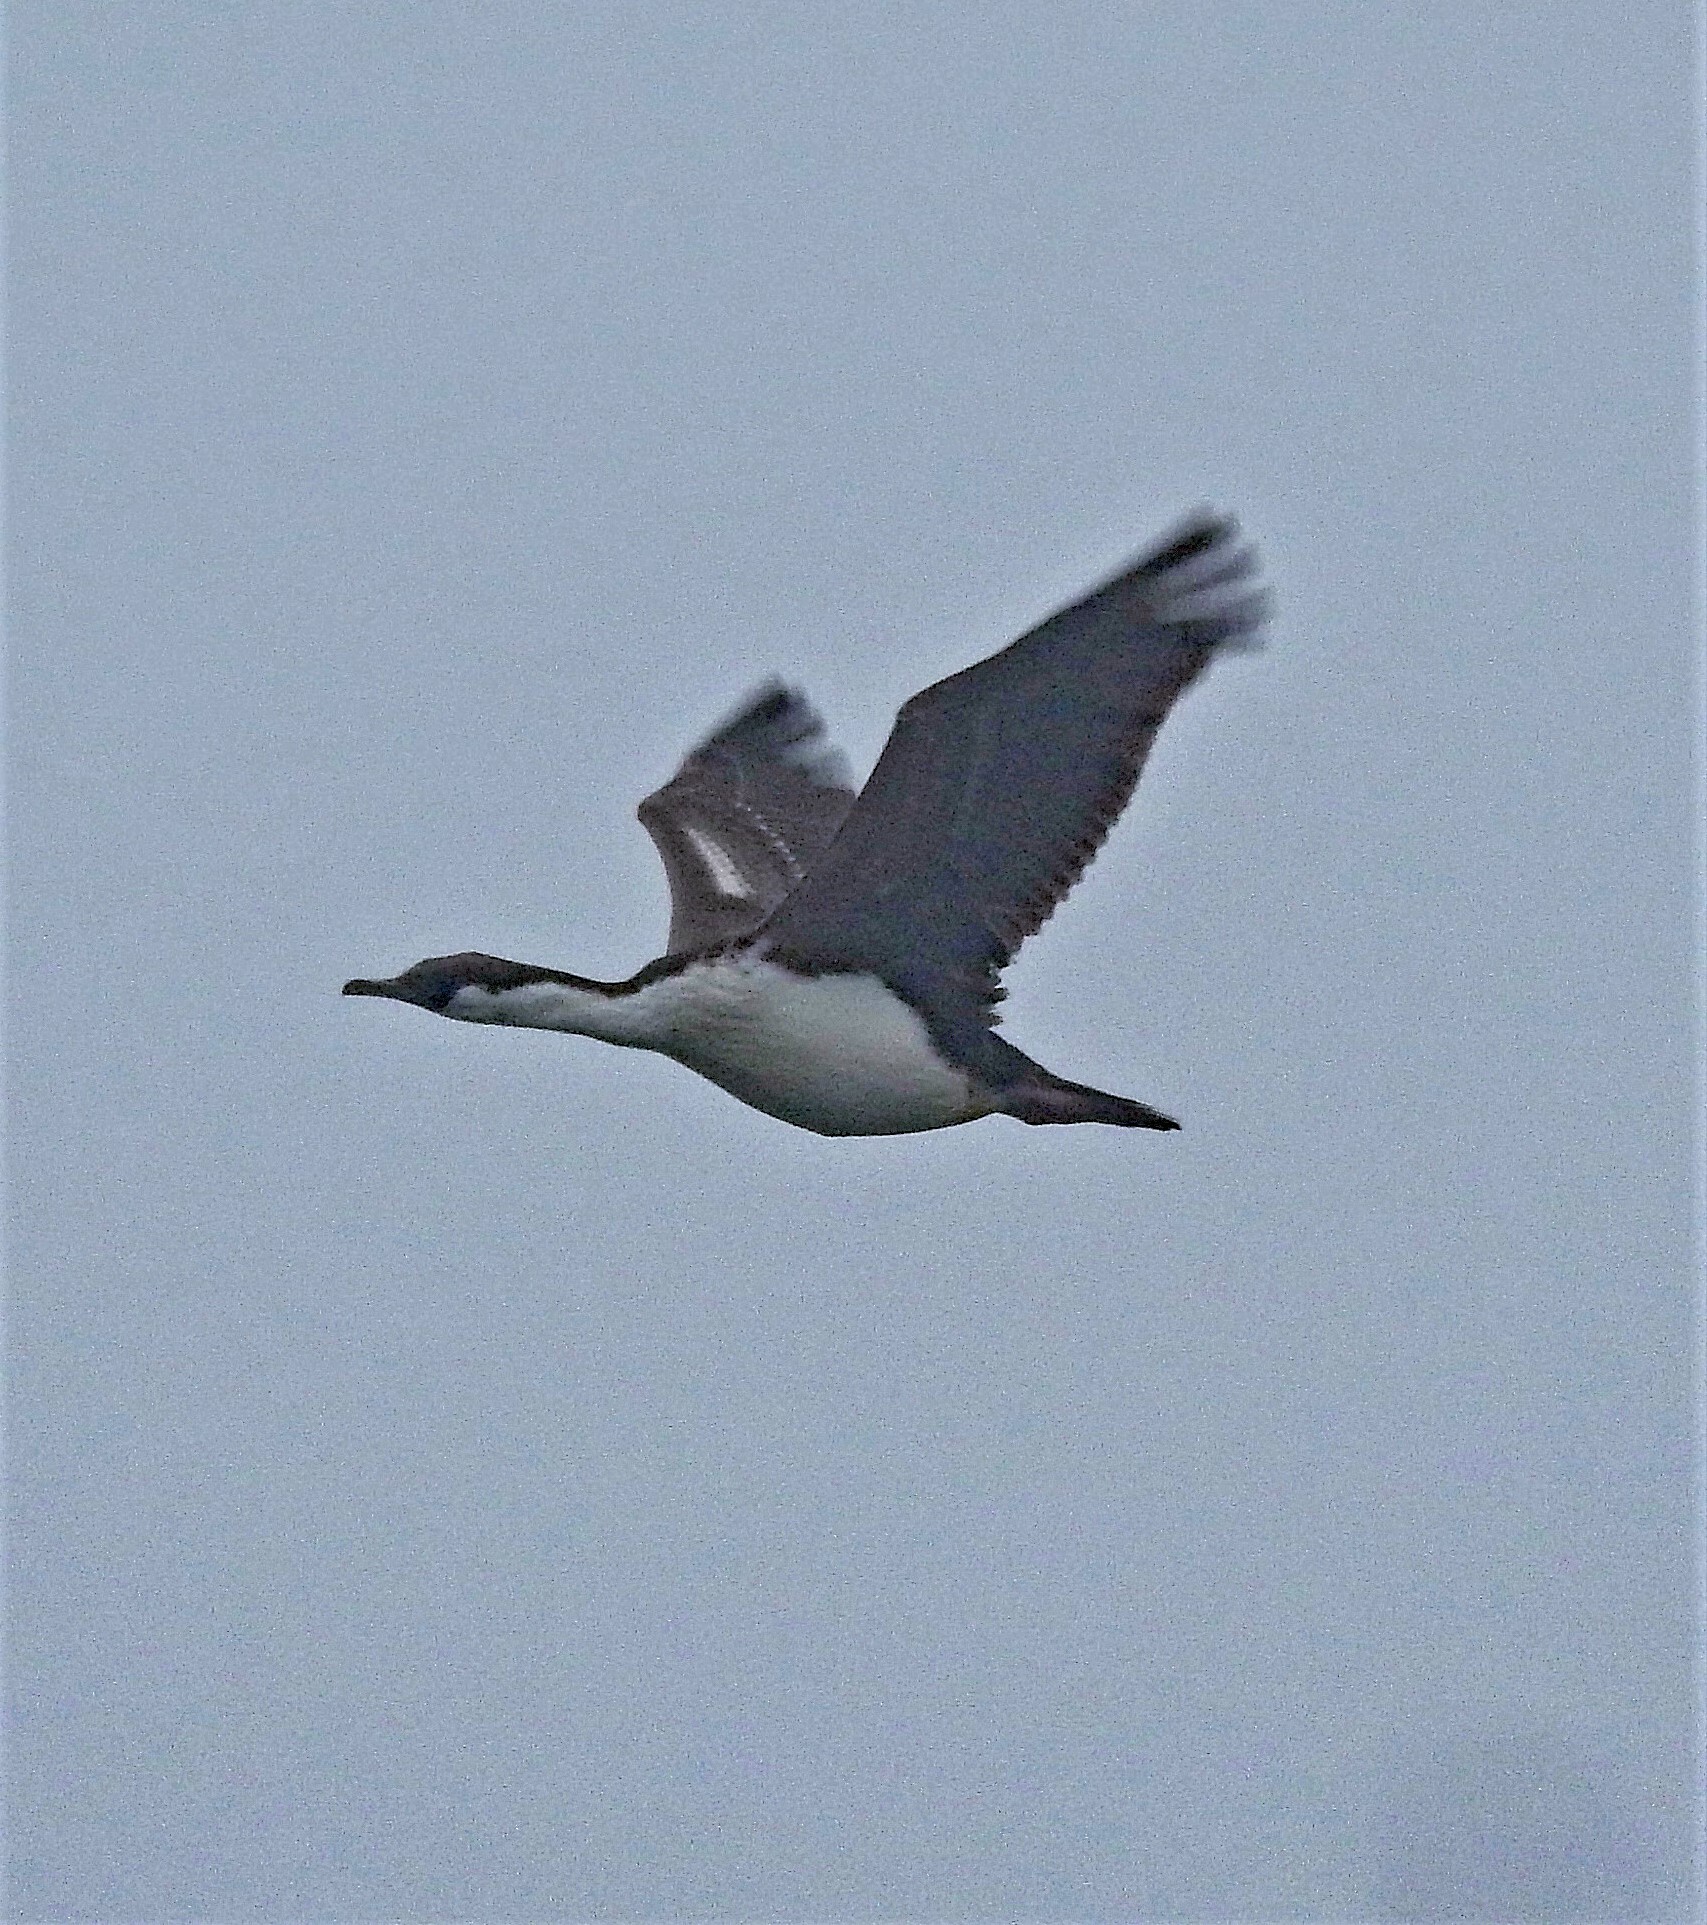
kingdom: Animalia
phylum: Chordata
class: Aves
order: Suliformes
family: Phalacrocoracidae
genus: Leucocarbo
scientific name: Leucocarbo atriceps
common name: Imperial shag
